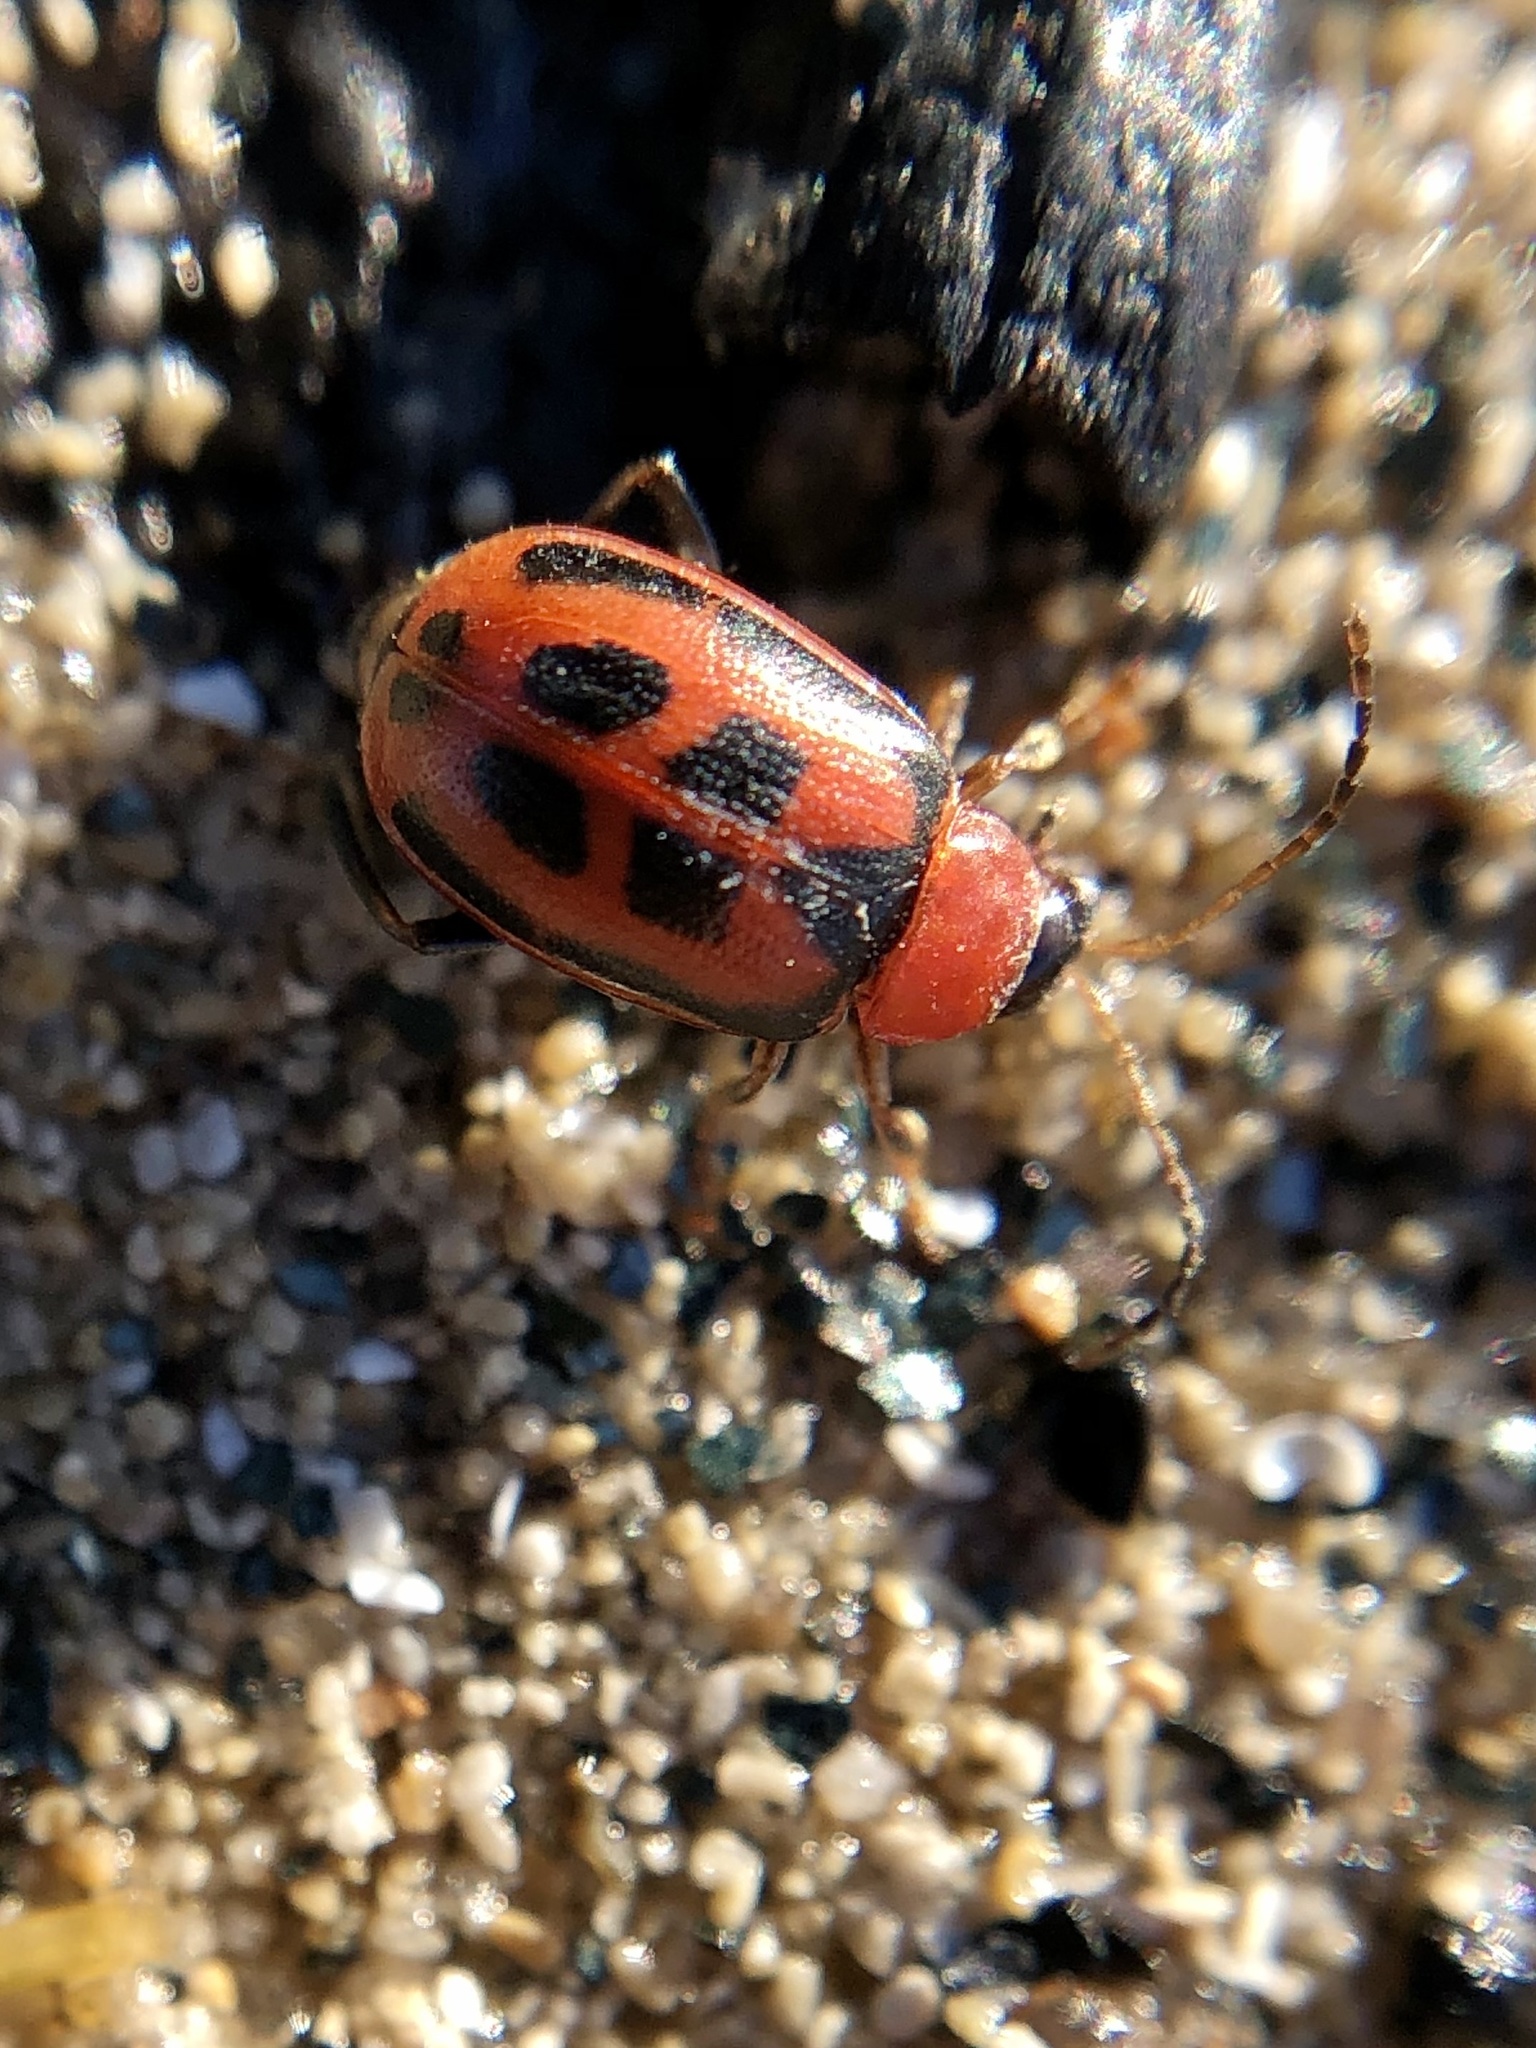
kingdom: Animalia
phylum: Arthropoda
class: Insecta
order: Coleoptera
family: Chrysomelidae
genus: Cerotoma
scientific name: Cerotoma trifurcata
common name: Bean leaf beetle
